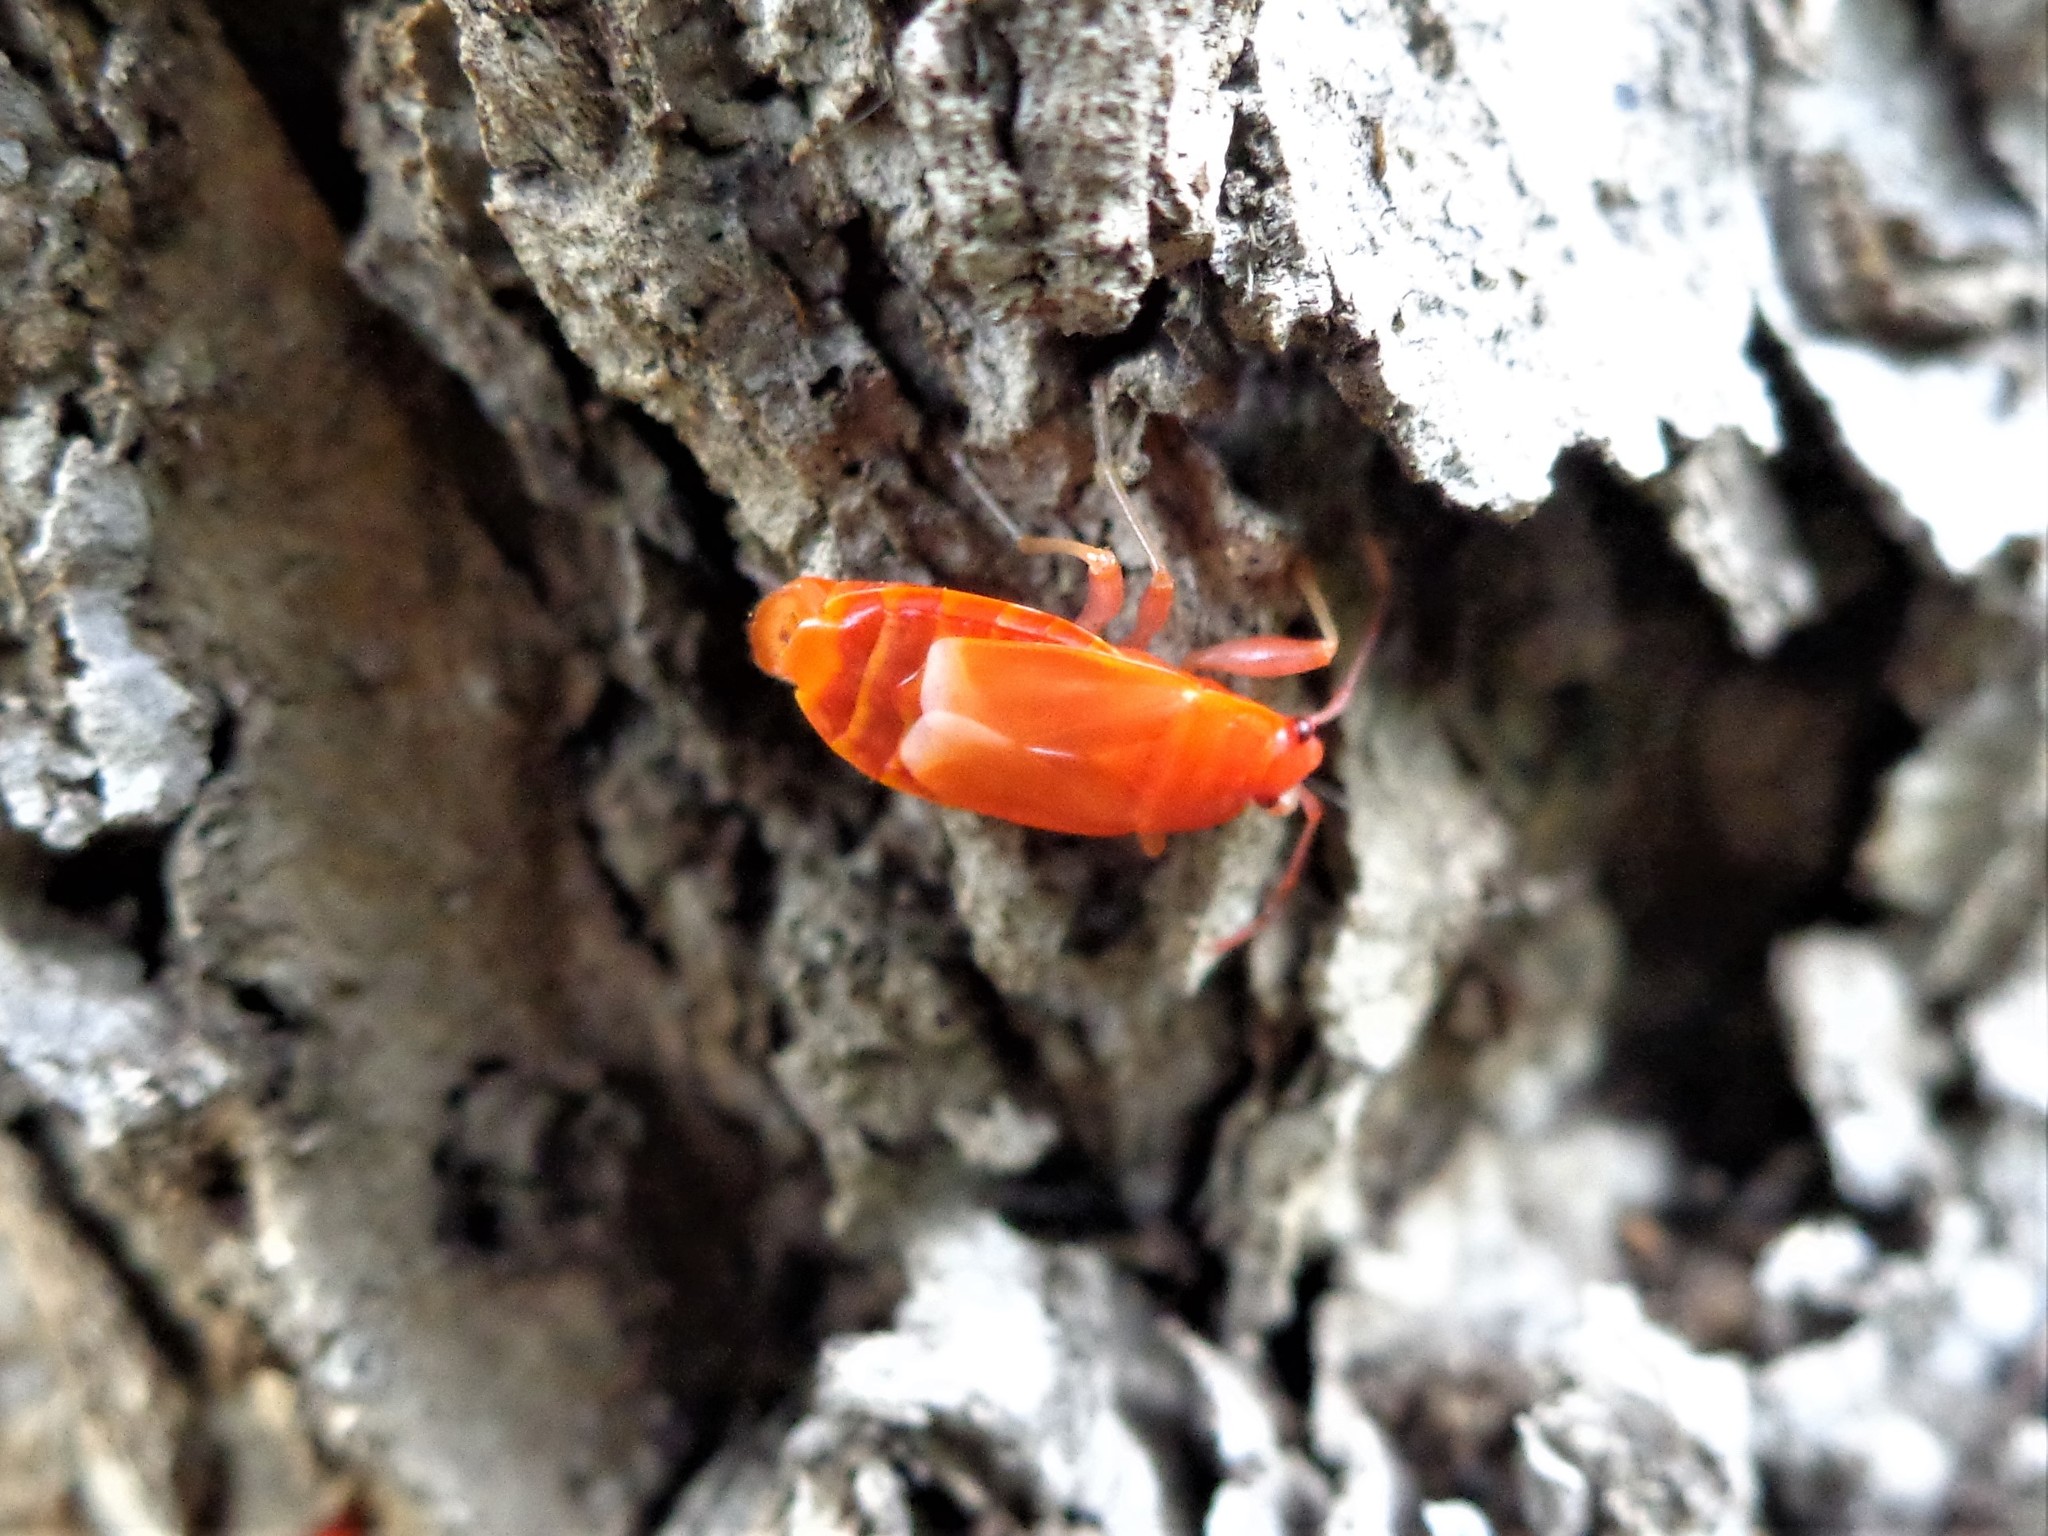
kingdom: Animalia
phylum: Arthropoda
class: Insecta
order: Hemiptera
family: Pyrrhocoridae
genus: Pyrrhocoris
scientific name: Pyrrhocoris apterus
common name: Firebug
